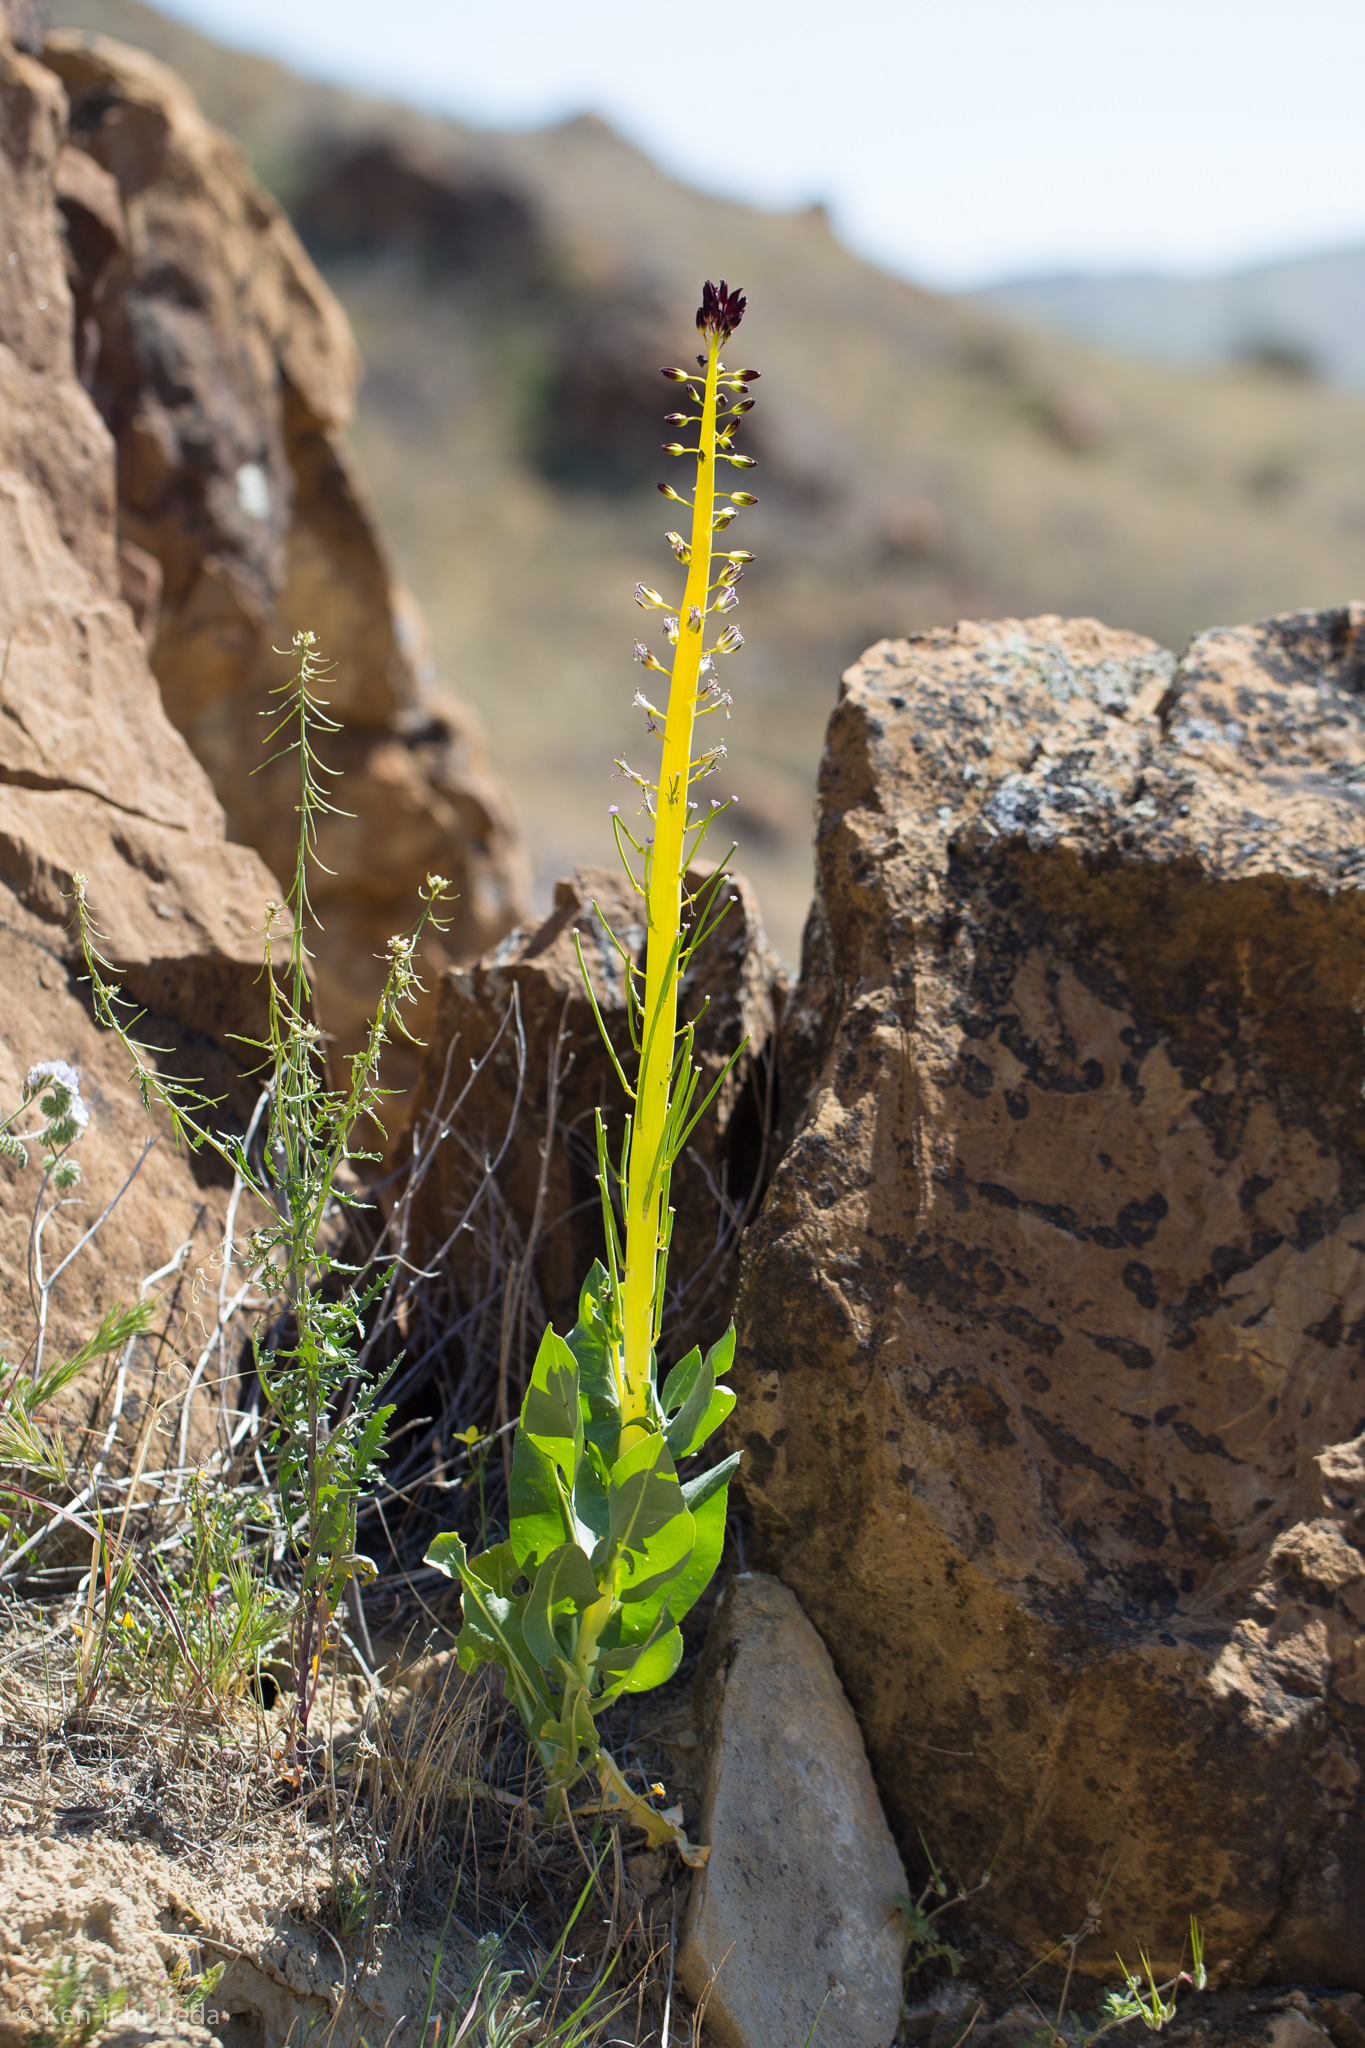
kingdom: Plantae
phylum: Tracheophyta
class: Magnoliopsida
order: Brassicales
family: Brassicaceae
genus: Streptanthus
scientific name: Streptanthus inflatus
